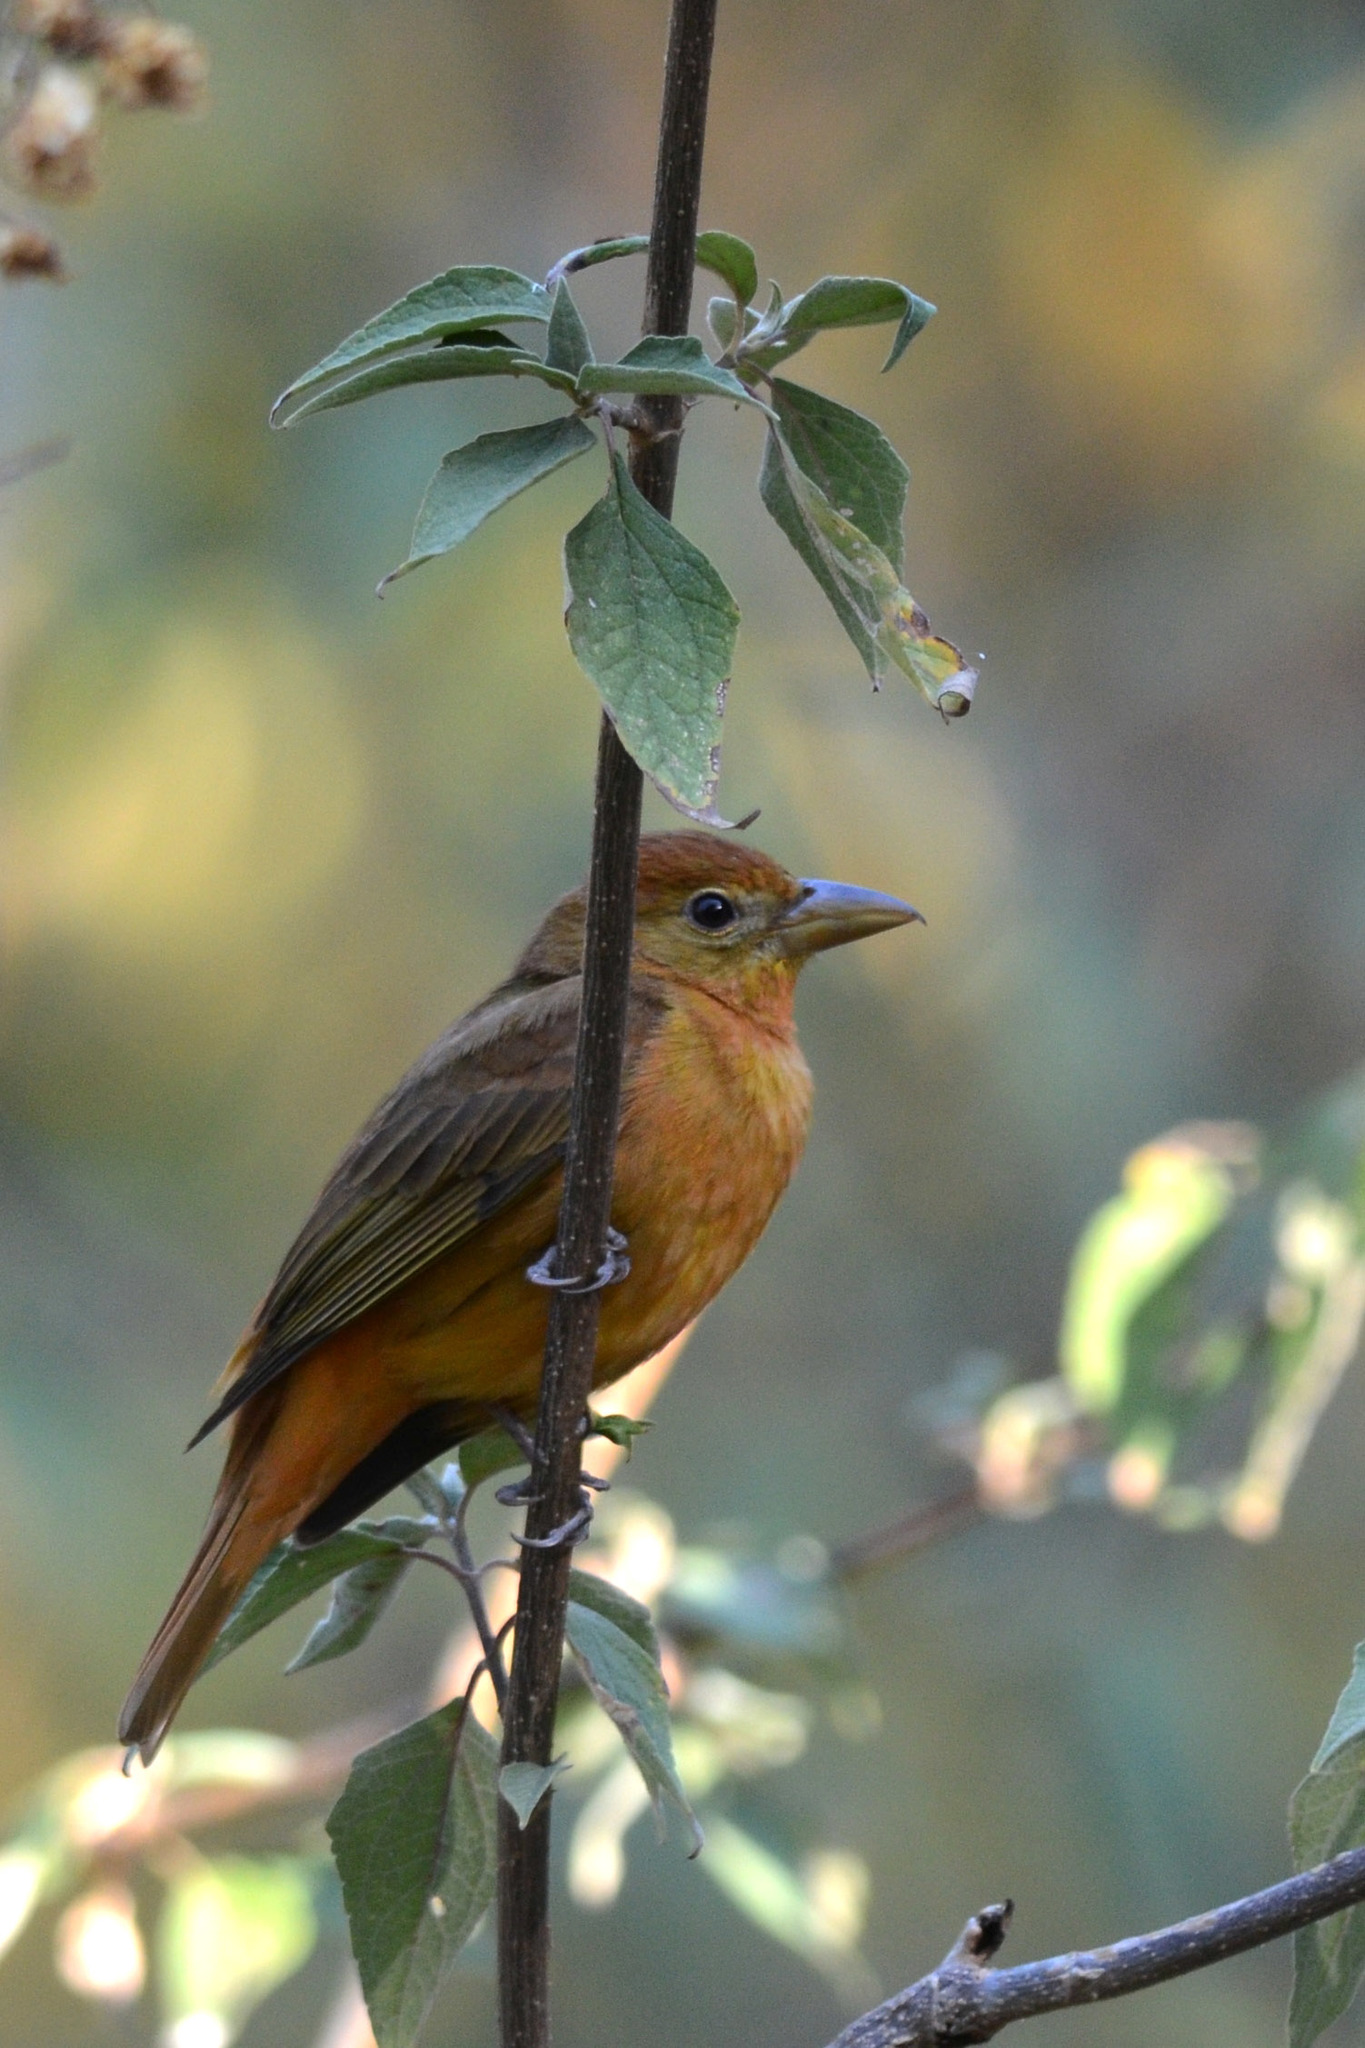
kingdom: Animalia
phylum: Chordata
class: Aves
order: Passeriformes
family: Cardinalidae
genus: Piranga
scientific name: Piranga flava
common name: Red tanager
